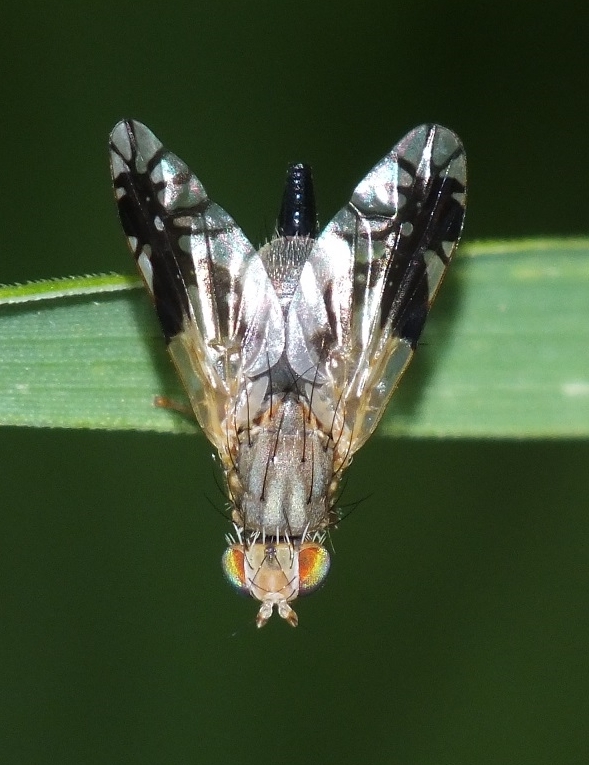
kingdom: Animalia
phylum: Arthropoda
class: Insecta
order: Diptera
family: Tephritidae
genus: Tephritis
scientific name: Tephritis hurvitzi
